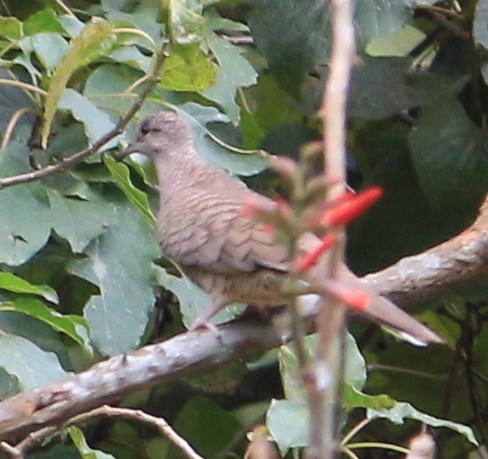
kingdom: Animalia
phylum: Chordata
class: Aves
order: Columbiformes
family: Columbidae
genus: Columbina
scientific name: Columbina inca
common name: Inca dove
